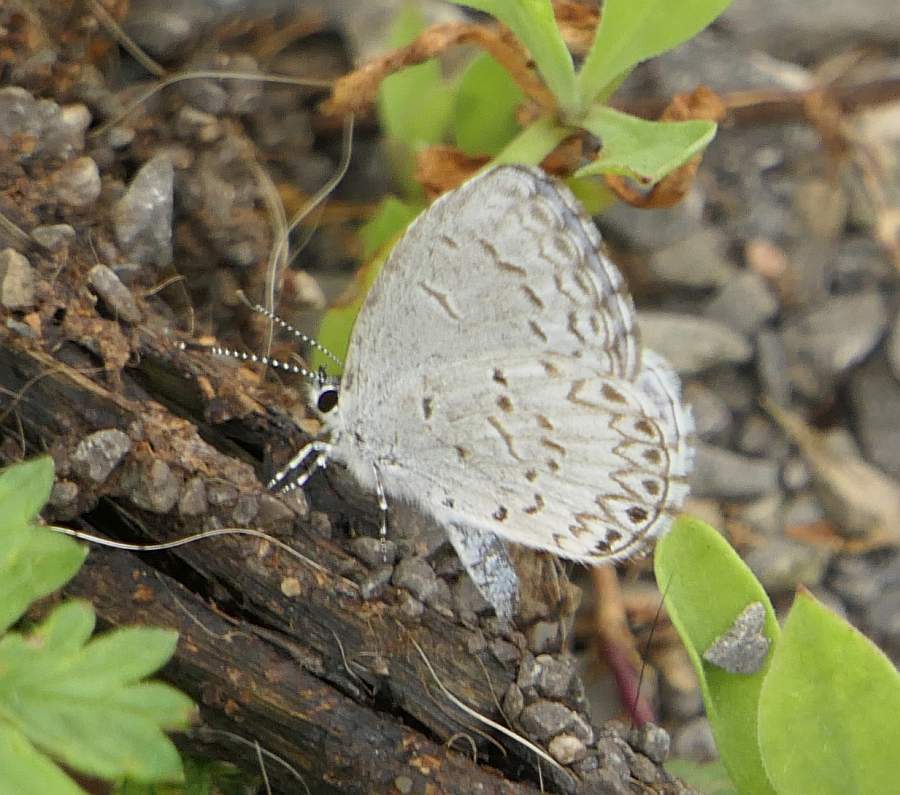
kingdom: Animalia
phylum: Arthropoda
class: Insecta
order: Lepidoptera
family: Lycaenidae
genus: Celastrina
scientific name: Celastrina lucia
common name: Lucia azure
